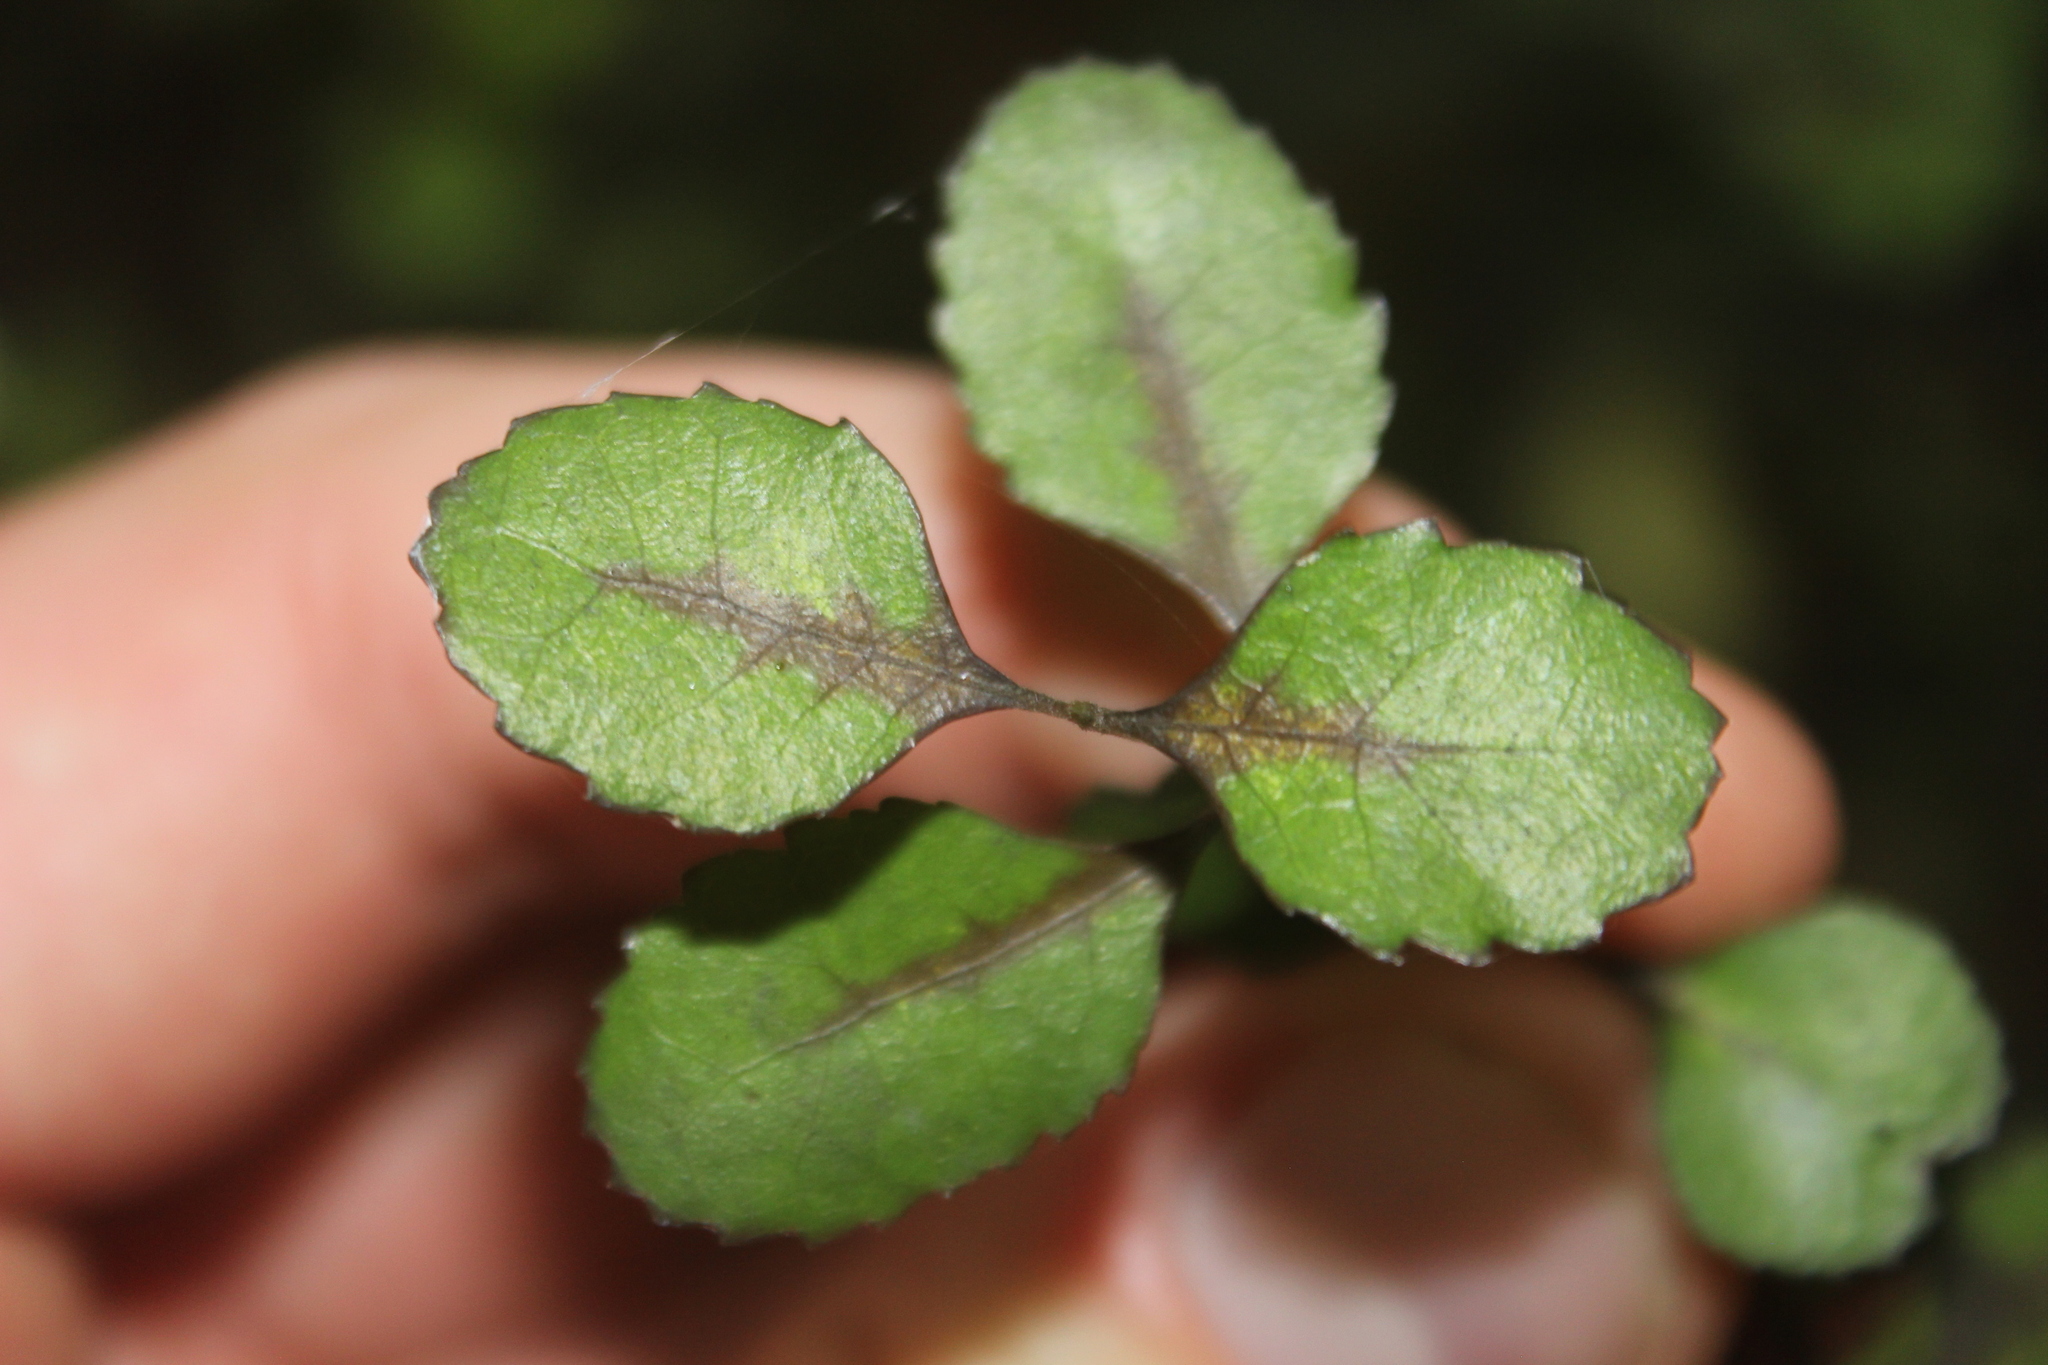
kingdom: Plantae
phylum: Tracheophyta
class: Magnoliopsida
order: Oxalidales
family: Elaeocarpaceae
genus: Aristotelia
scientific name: Aristotelia fruticosa
